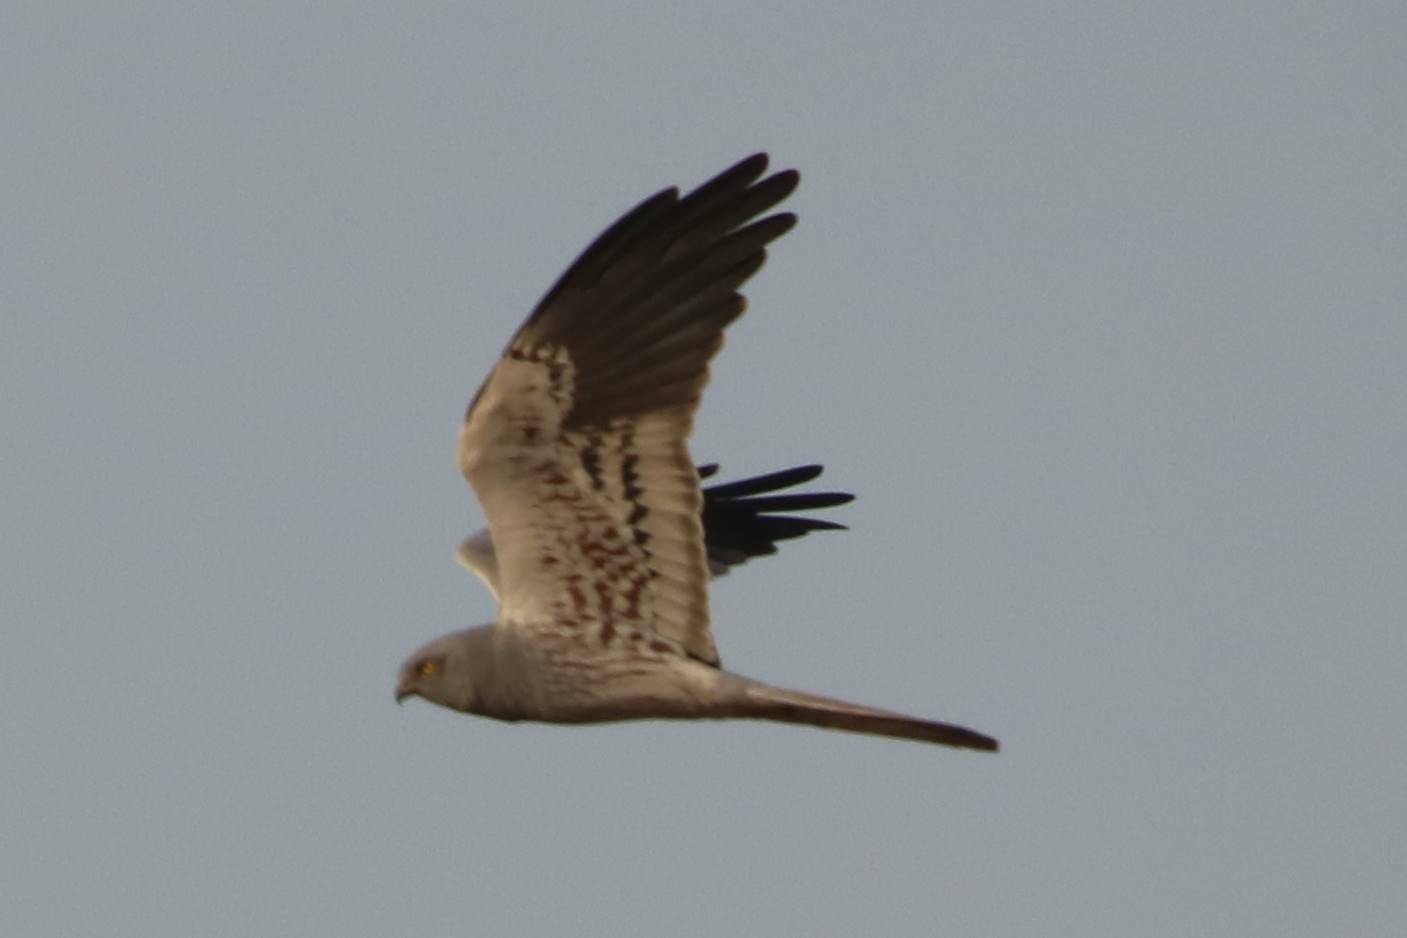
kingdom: Animalia
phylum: Chordata
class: Aves
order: Accipitriformes
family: Accipitridae
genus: Circus
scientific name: Circus pygargus
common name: Montagu's harrier
